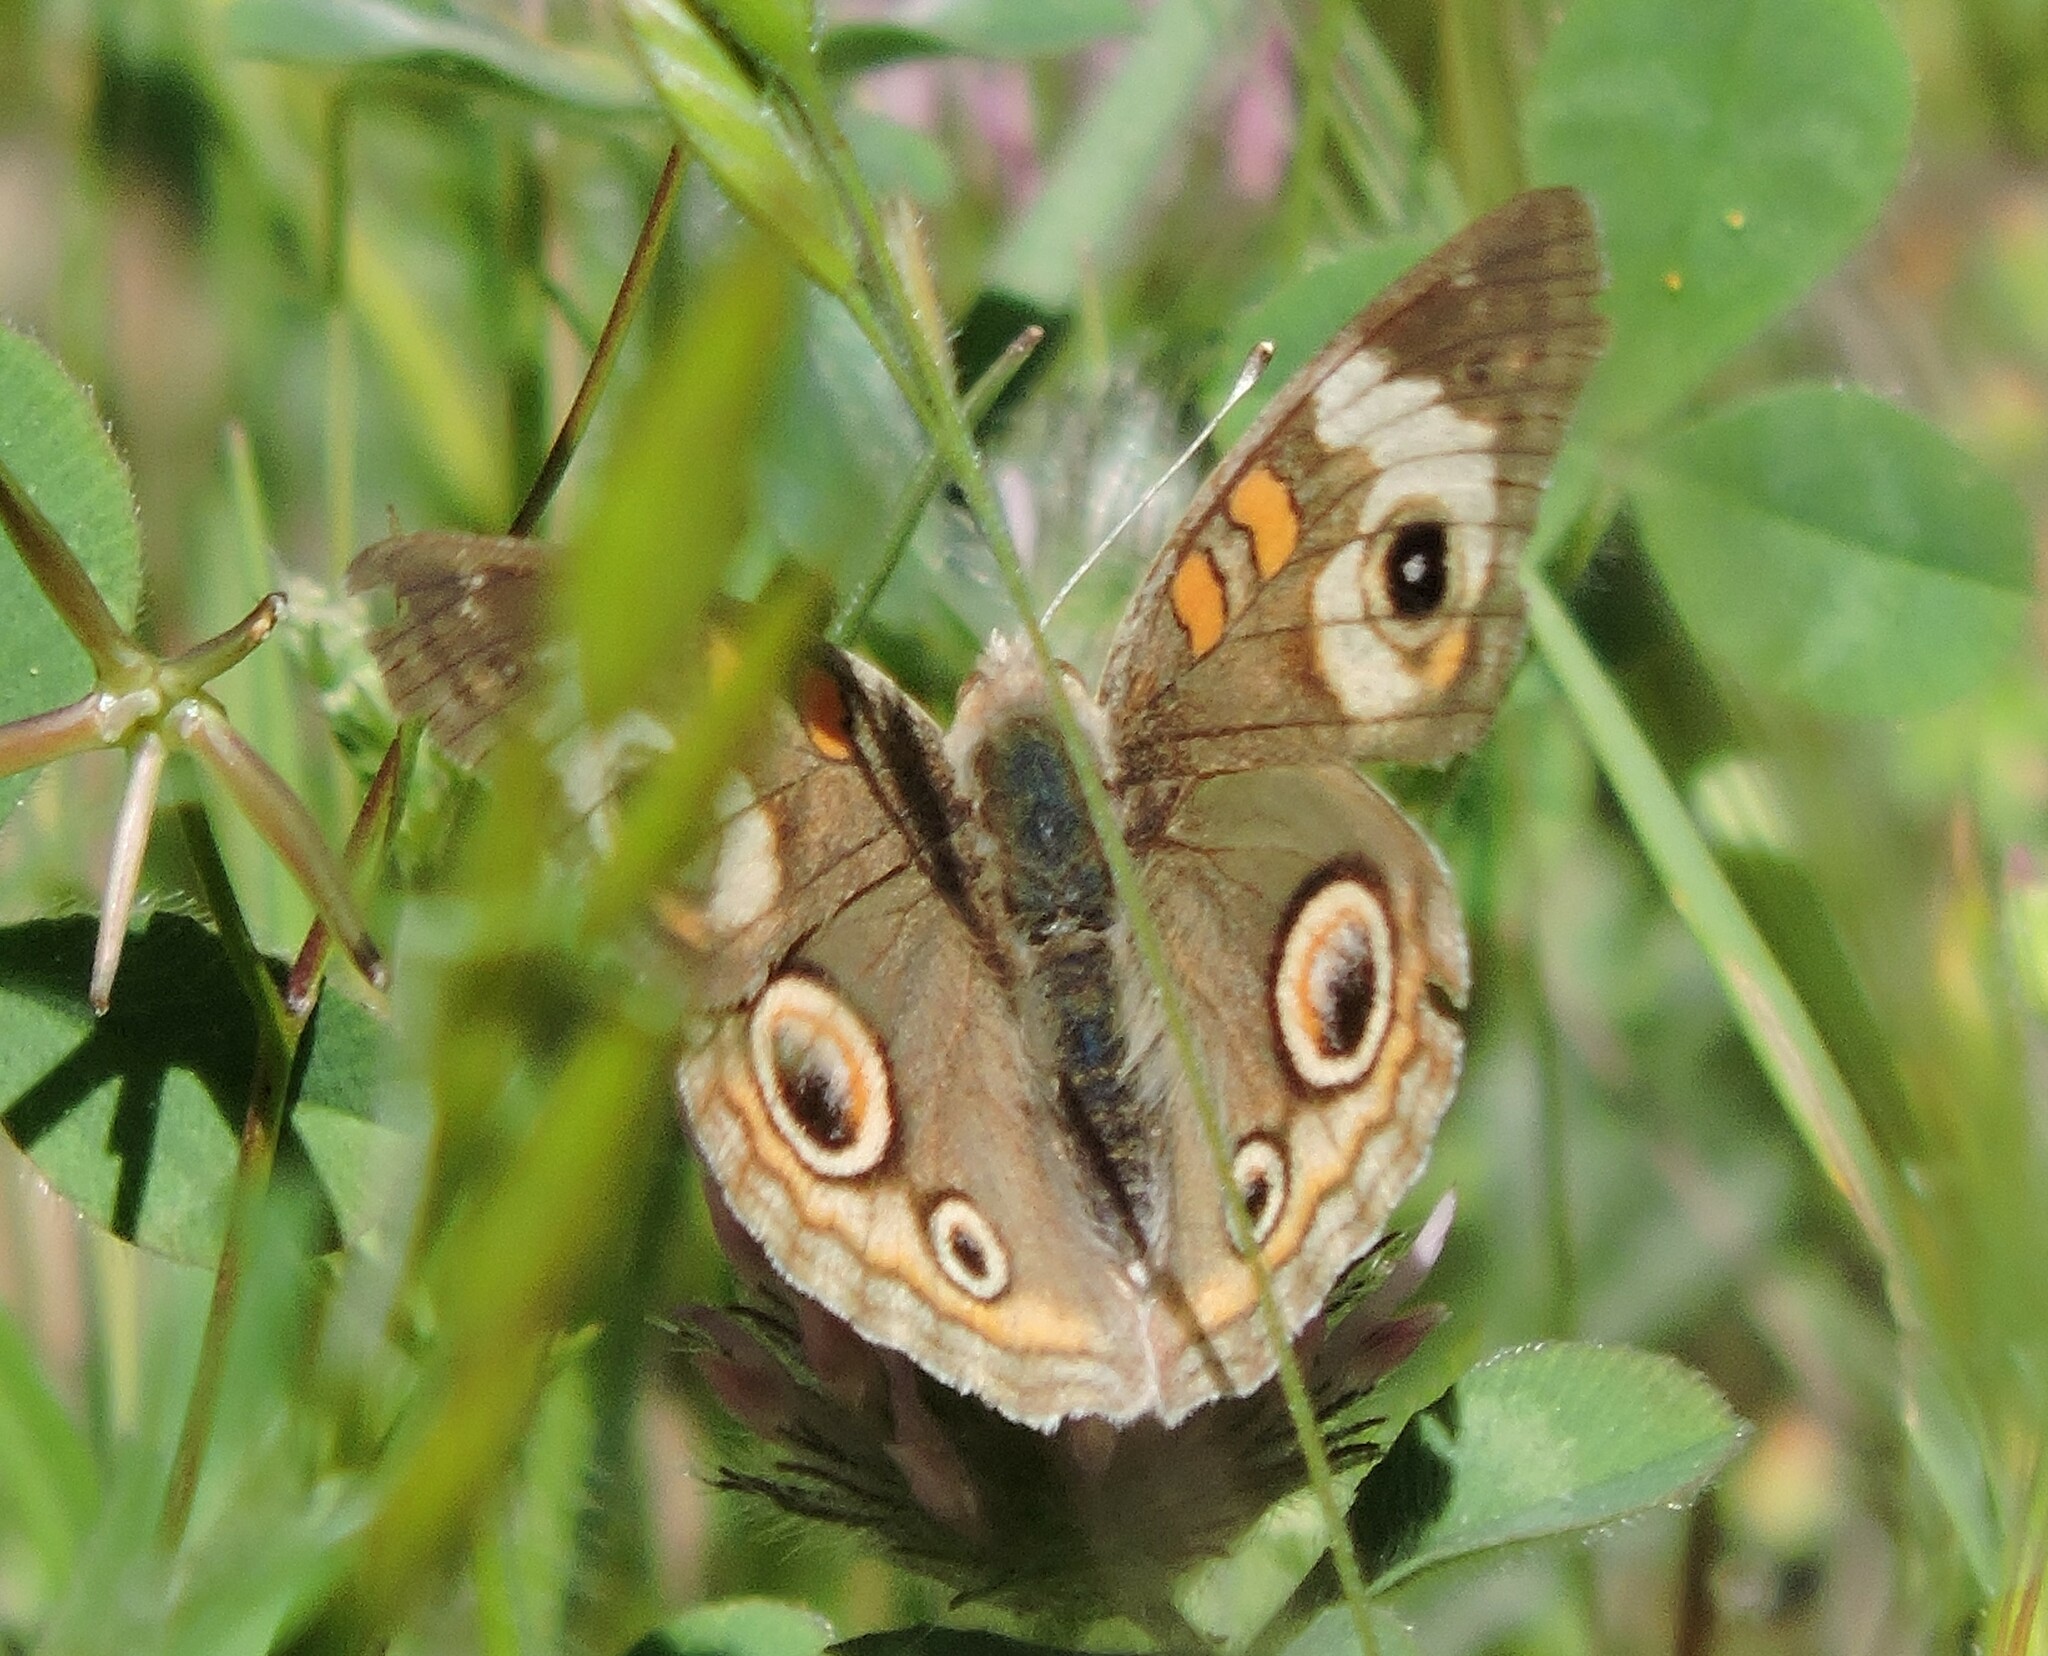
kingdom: Animalia
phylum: Arthropoda
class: Insecta
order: Lepidoptera
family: Nymphalidae
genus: Junonia
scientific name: Junonia grisea
